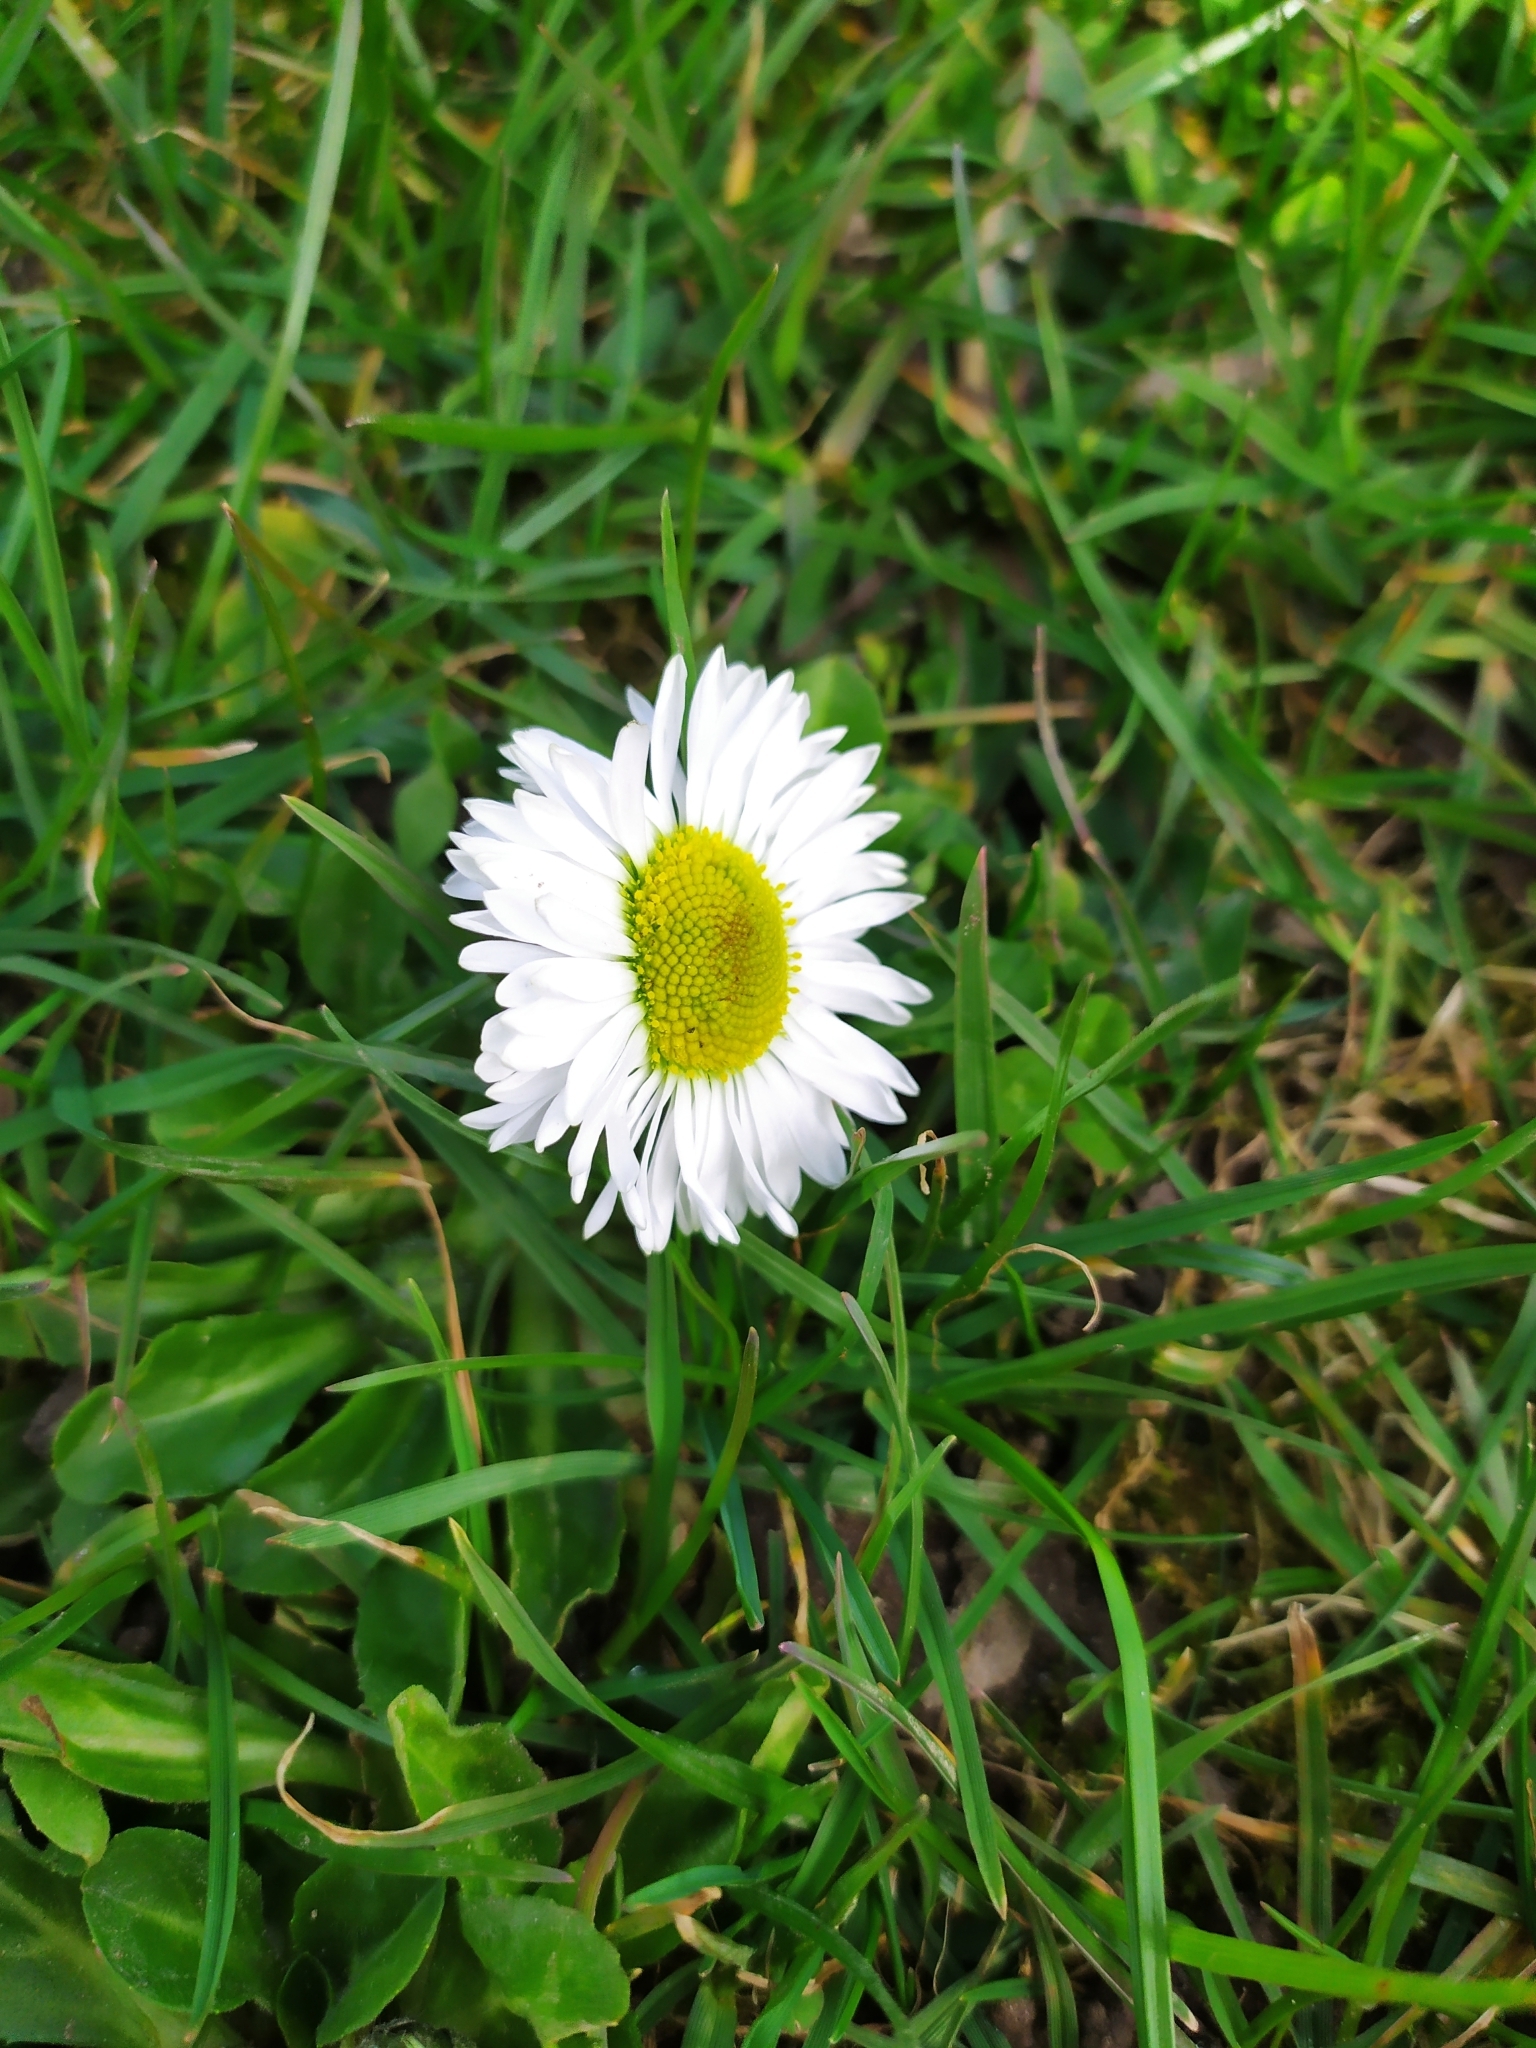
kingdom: Plantae
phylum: Tracheophyta
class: Magnoliopsida
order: Asterales
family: Asteraceae
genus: Bellis
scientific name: Bellis perennis
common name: Lawndaisy
